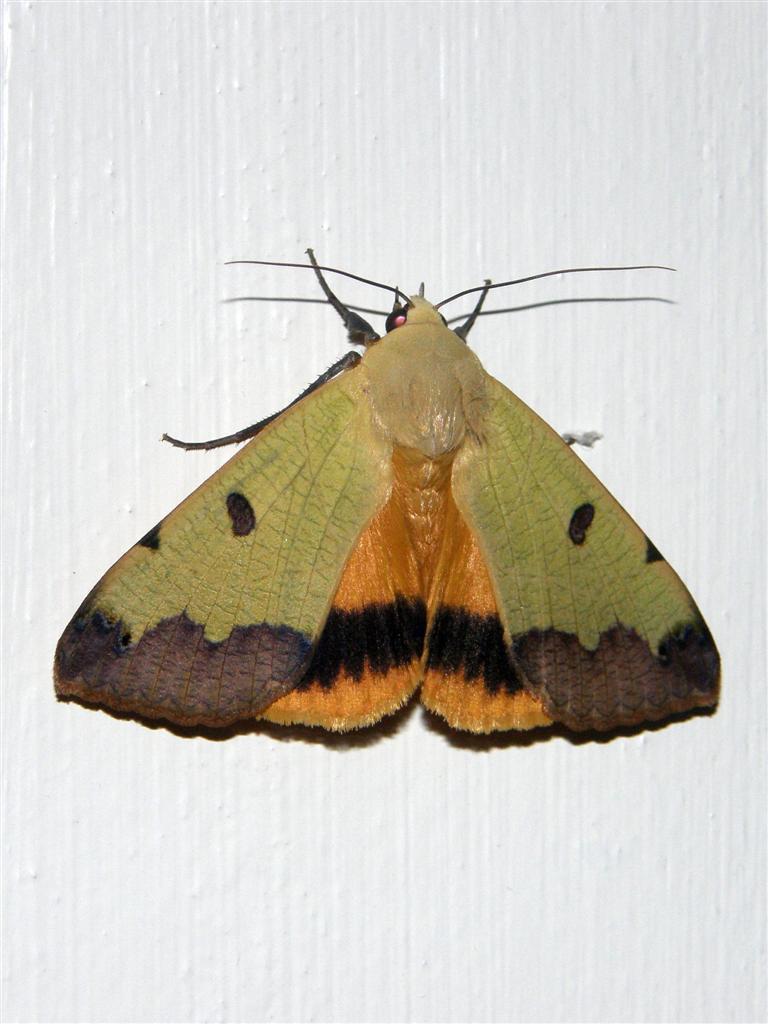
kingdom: Animalia
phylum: Arthropoda
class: Insecta
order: Lepidoptera
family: Erebidae
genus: Ophiusa
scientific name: Ophiusa tirhaca
